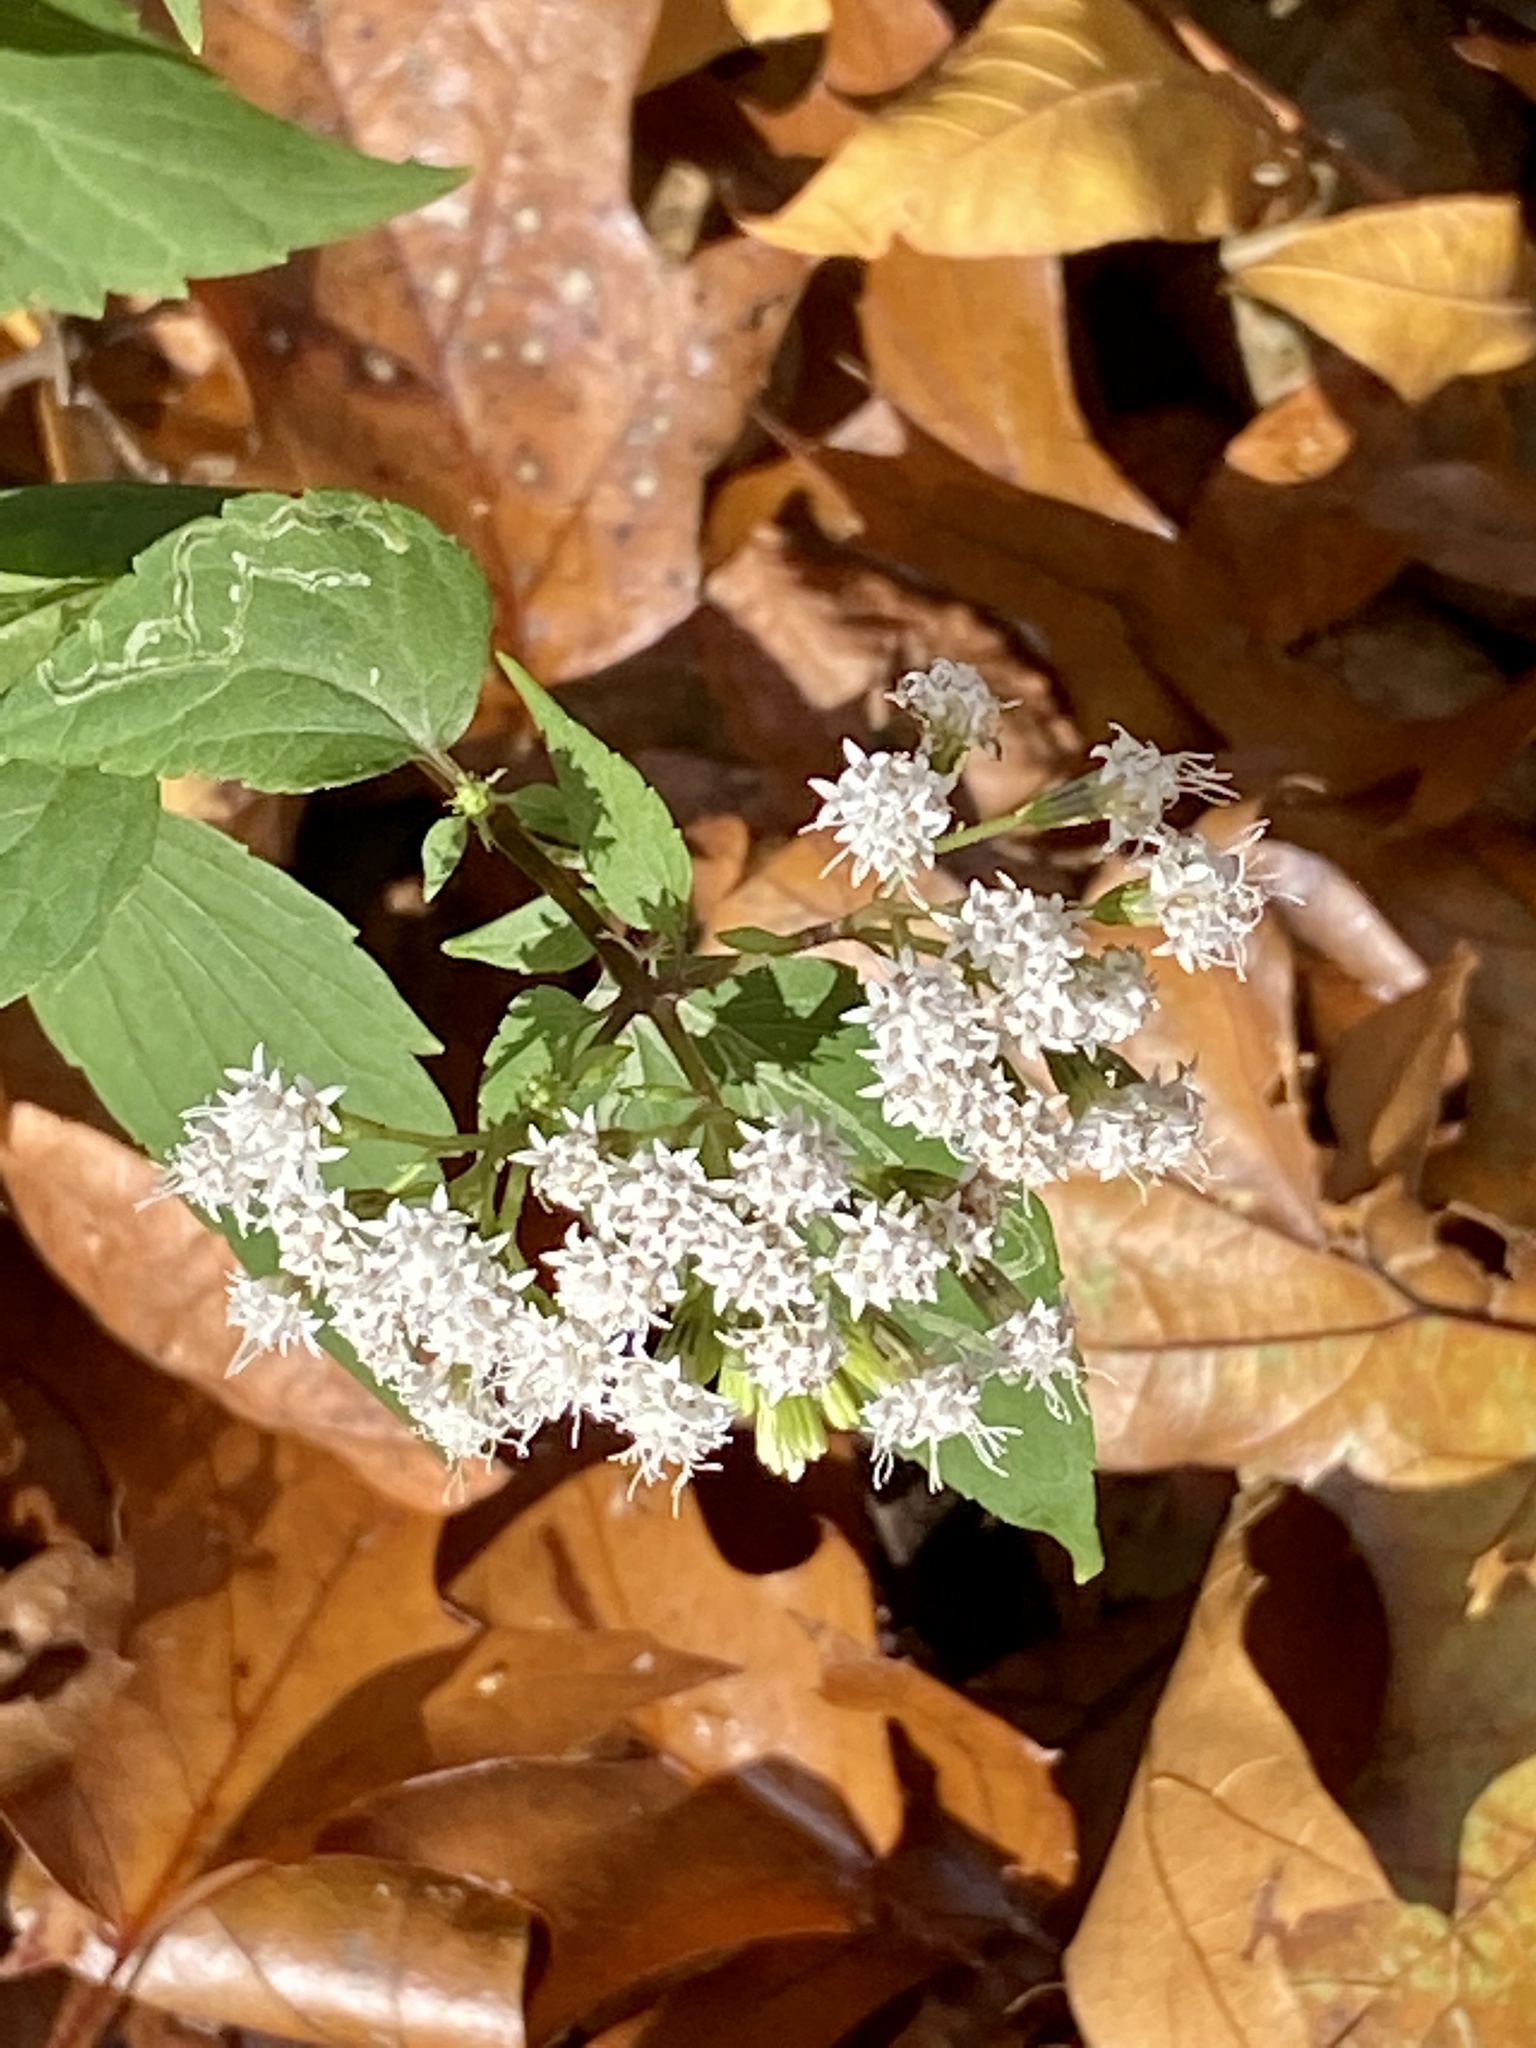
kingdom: Plantae
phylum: Tracheophyta
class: Magnoliopsida
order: Asterales
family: Asteraceae
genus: Ageratina
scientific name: Ageratina altissima
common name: White snakeroot
